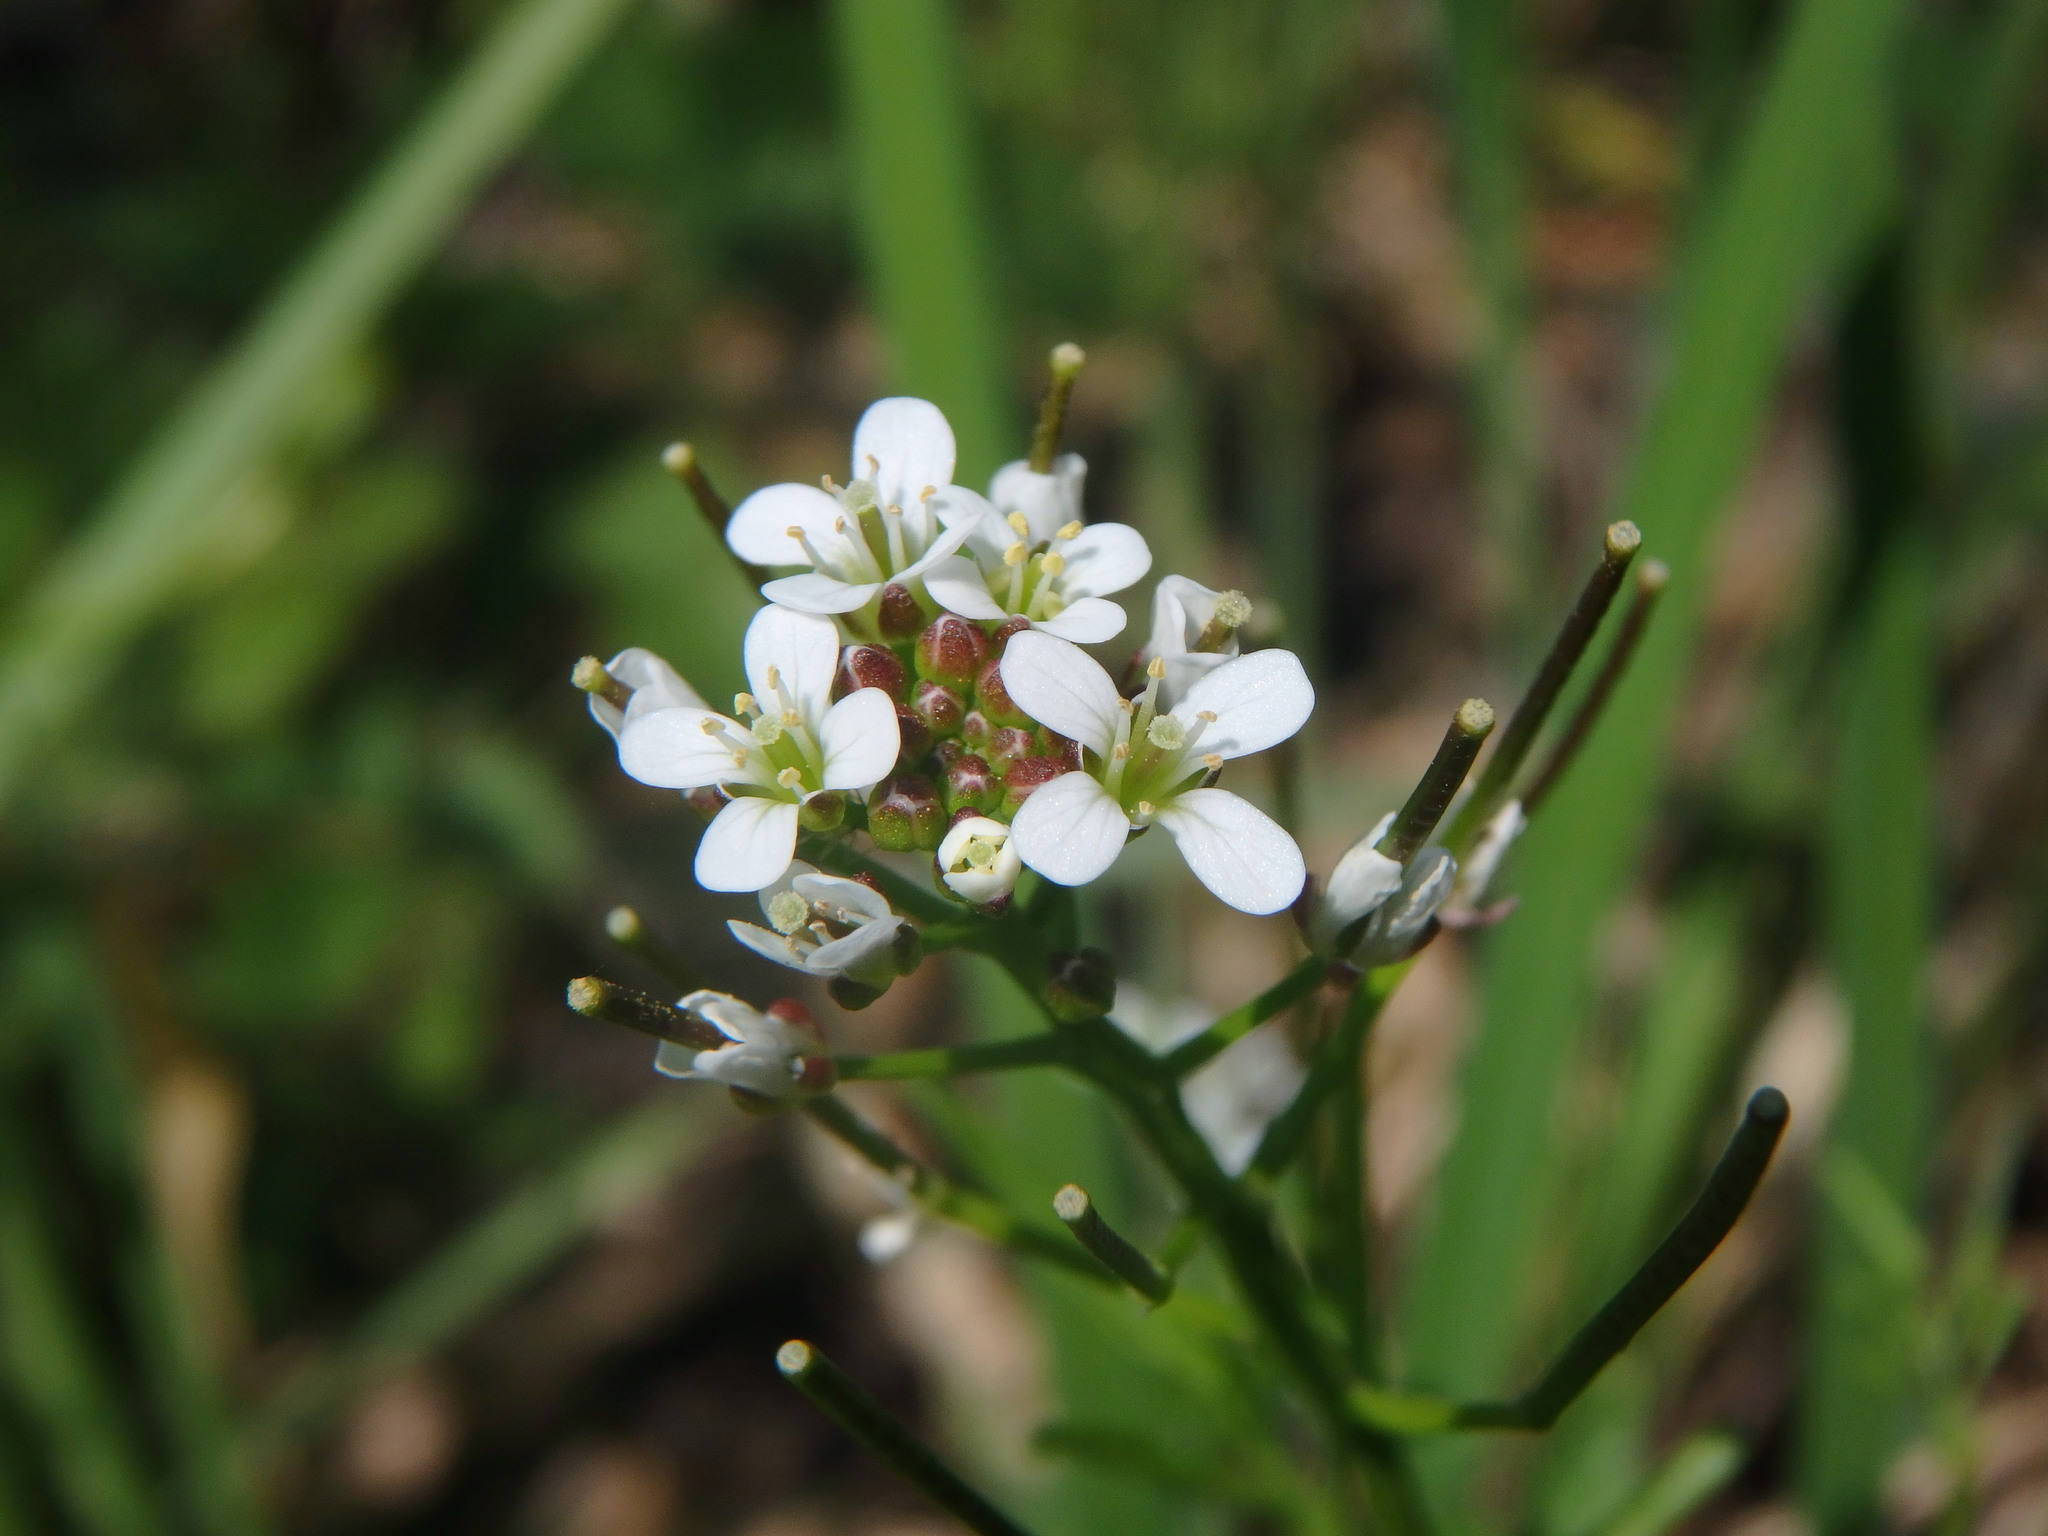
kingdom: Plantae
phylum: Tracheophyta
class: Magnoliopsida
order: Brassicales
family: Brassicaceae
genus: Cardamine
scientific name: Cardamine flexuosa
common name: Woodland bittercress
